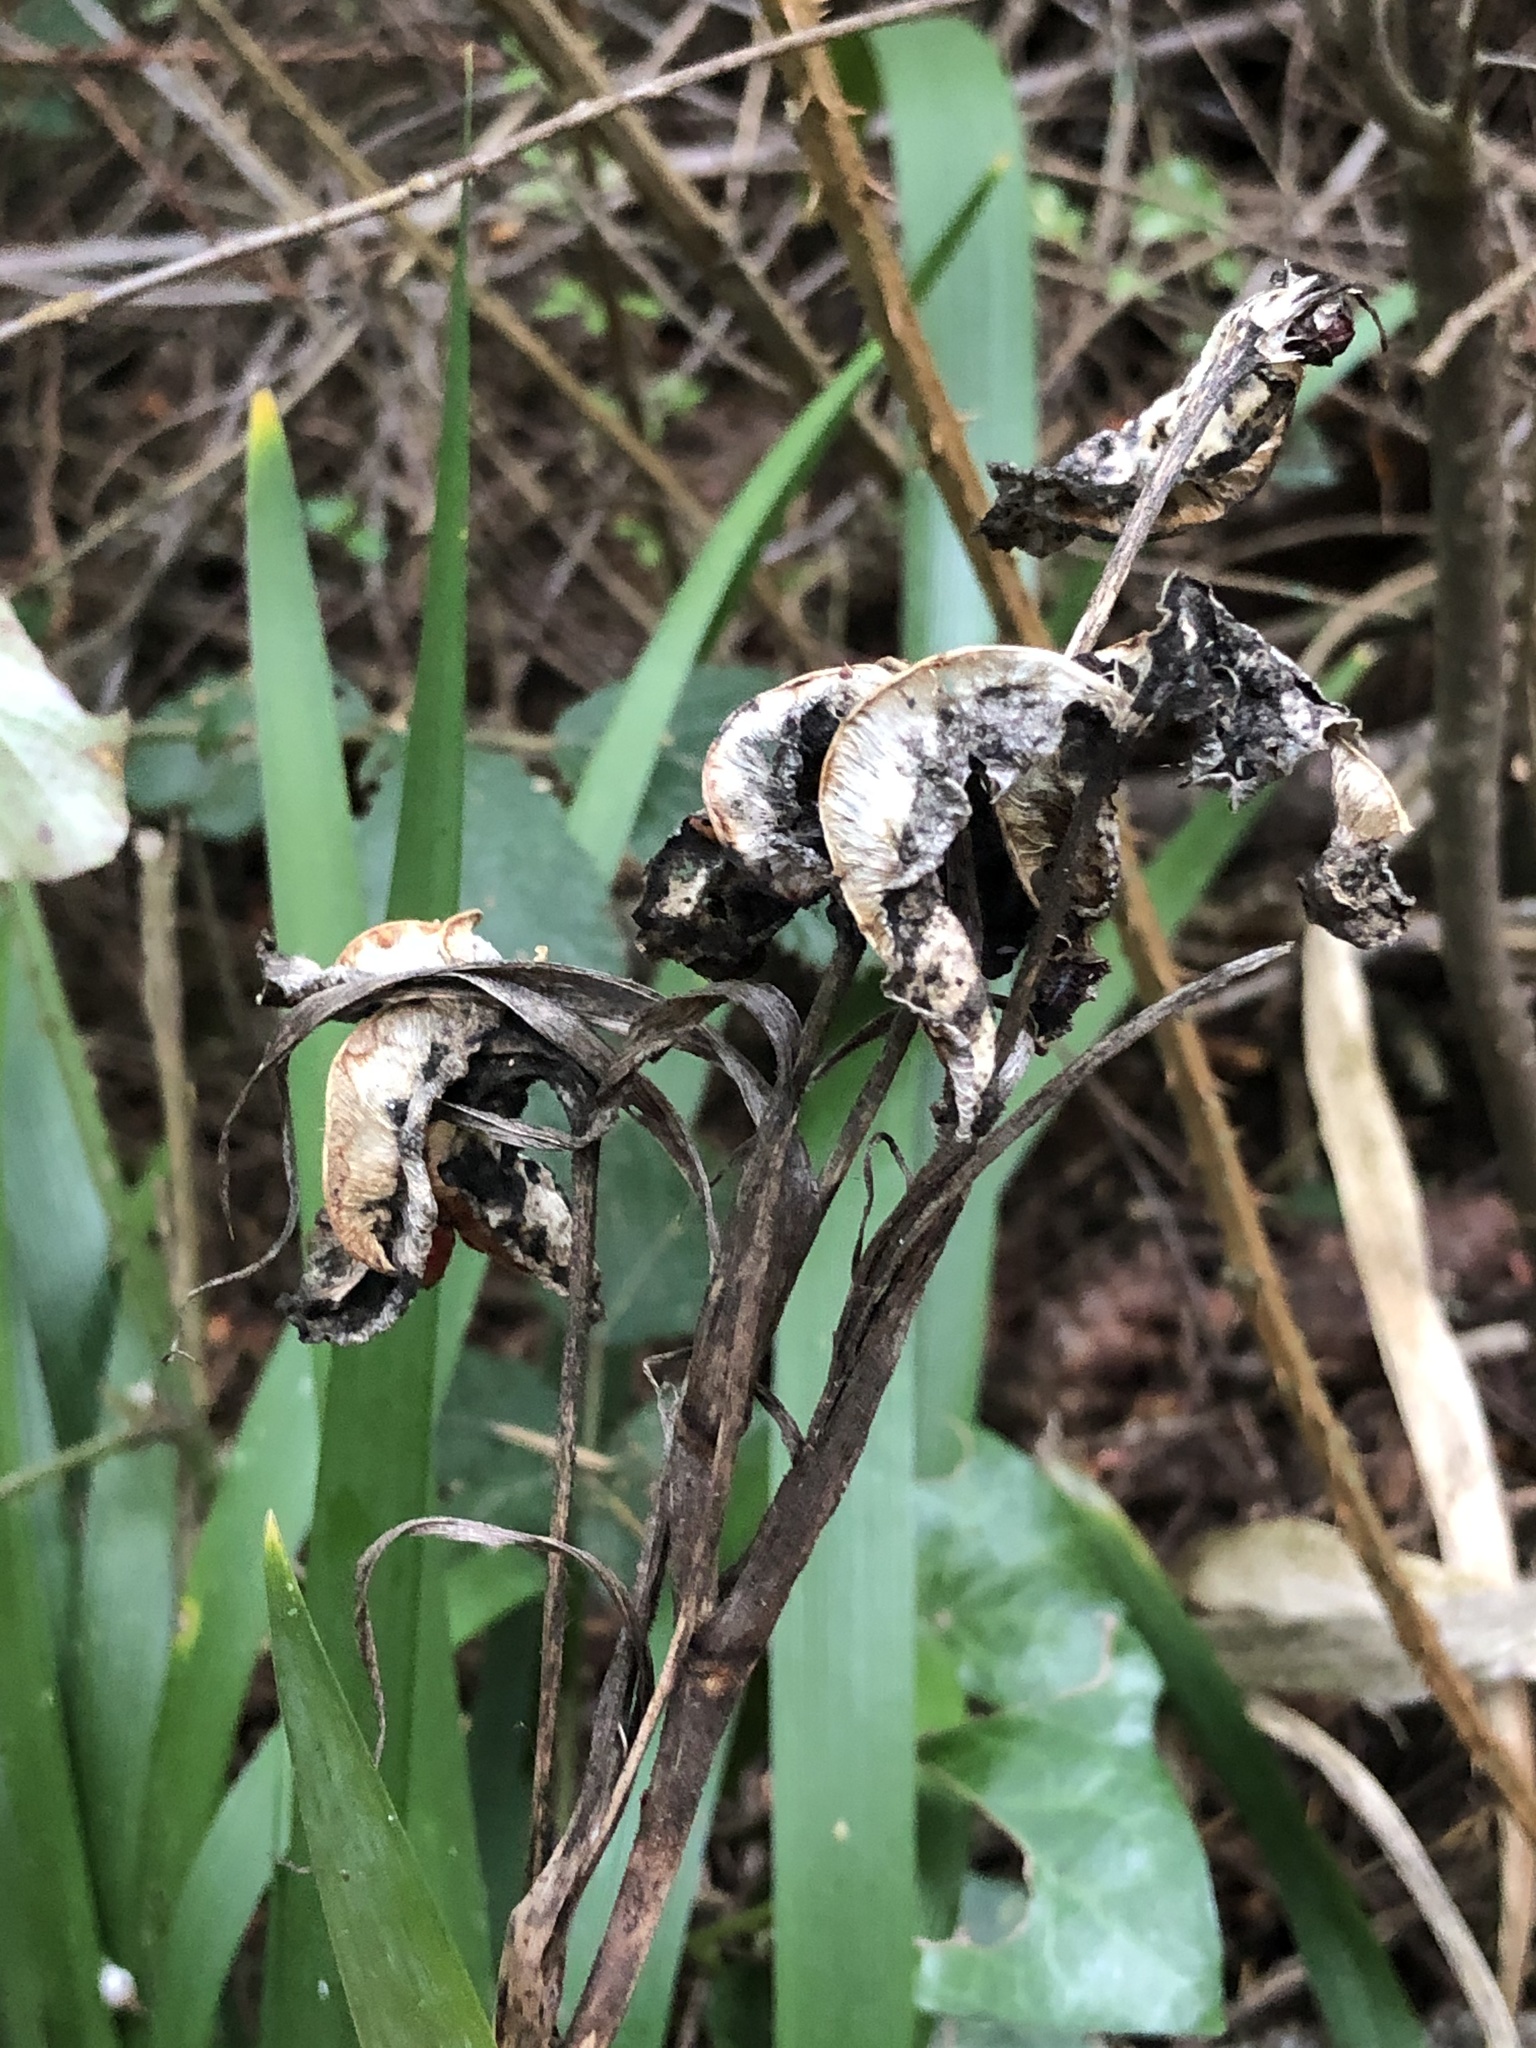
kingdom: Plantae
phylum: Tracheophyta
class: Liliopsida
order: Asparagales
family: Iridaceae
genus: Iris
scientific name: Iris foetidissima
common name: Stinking iris
